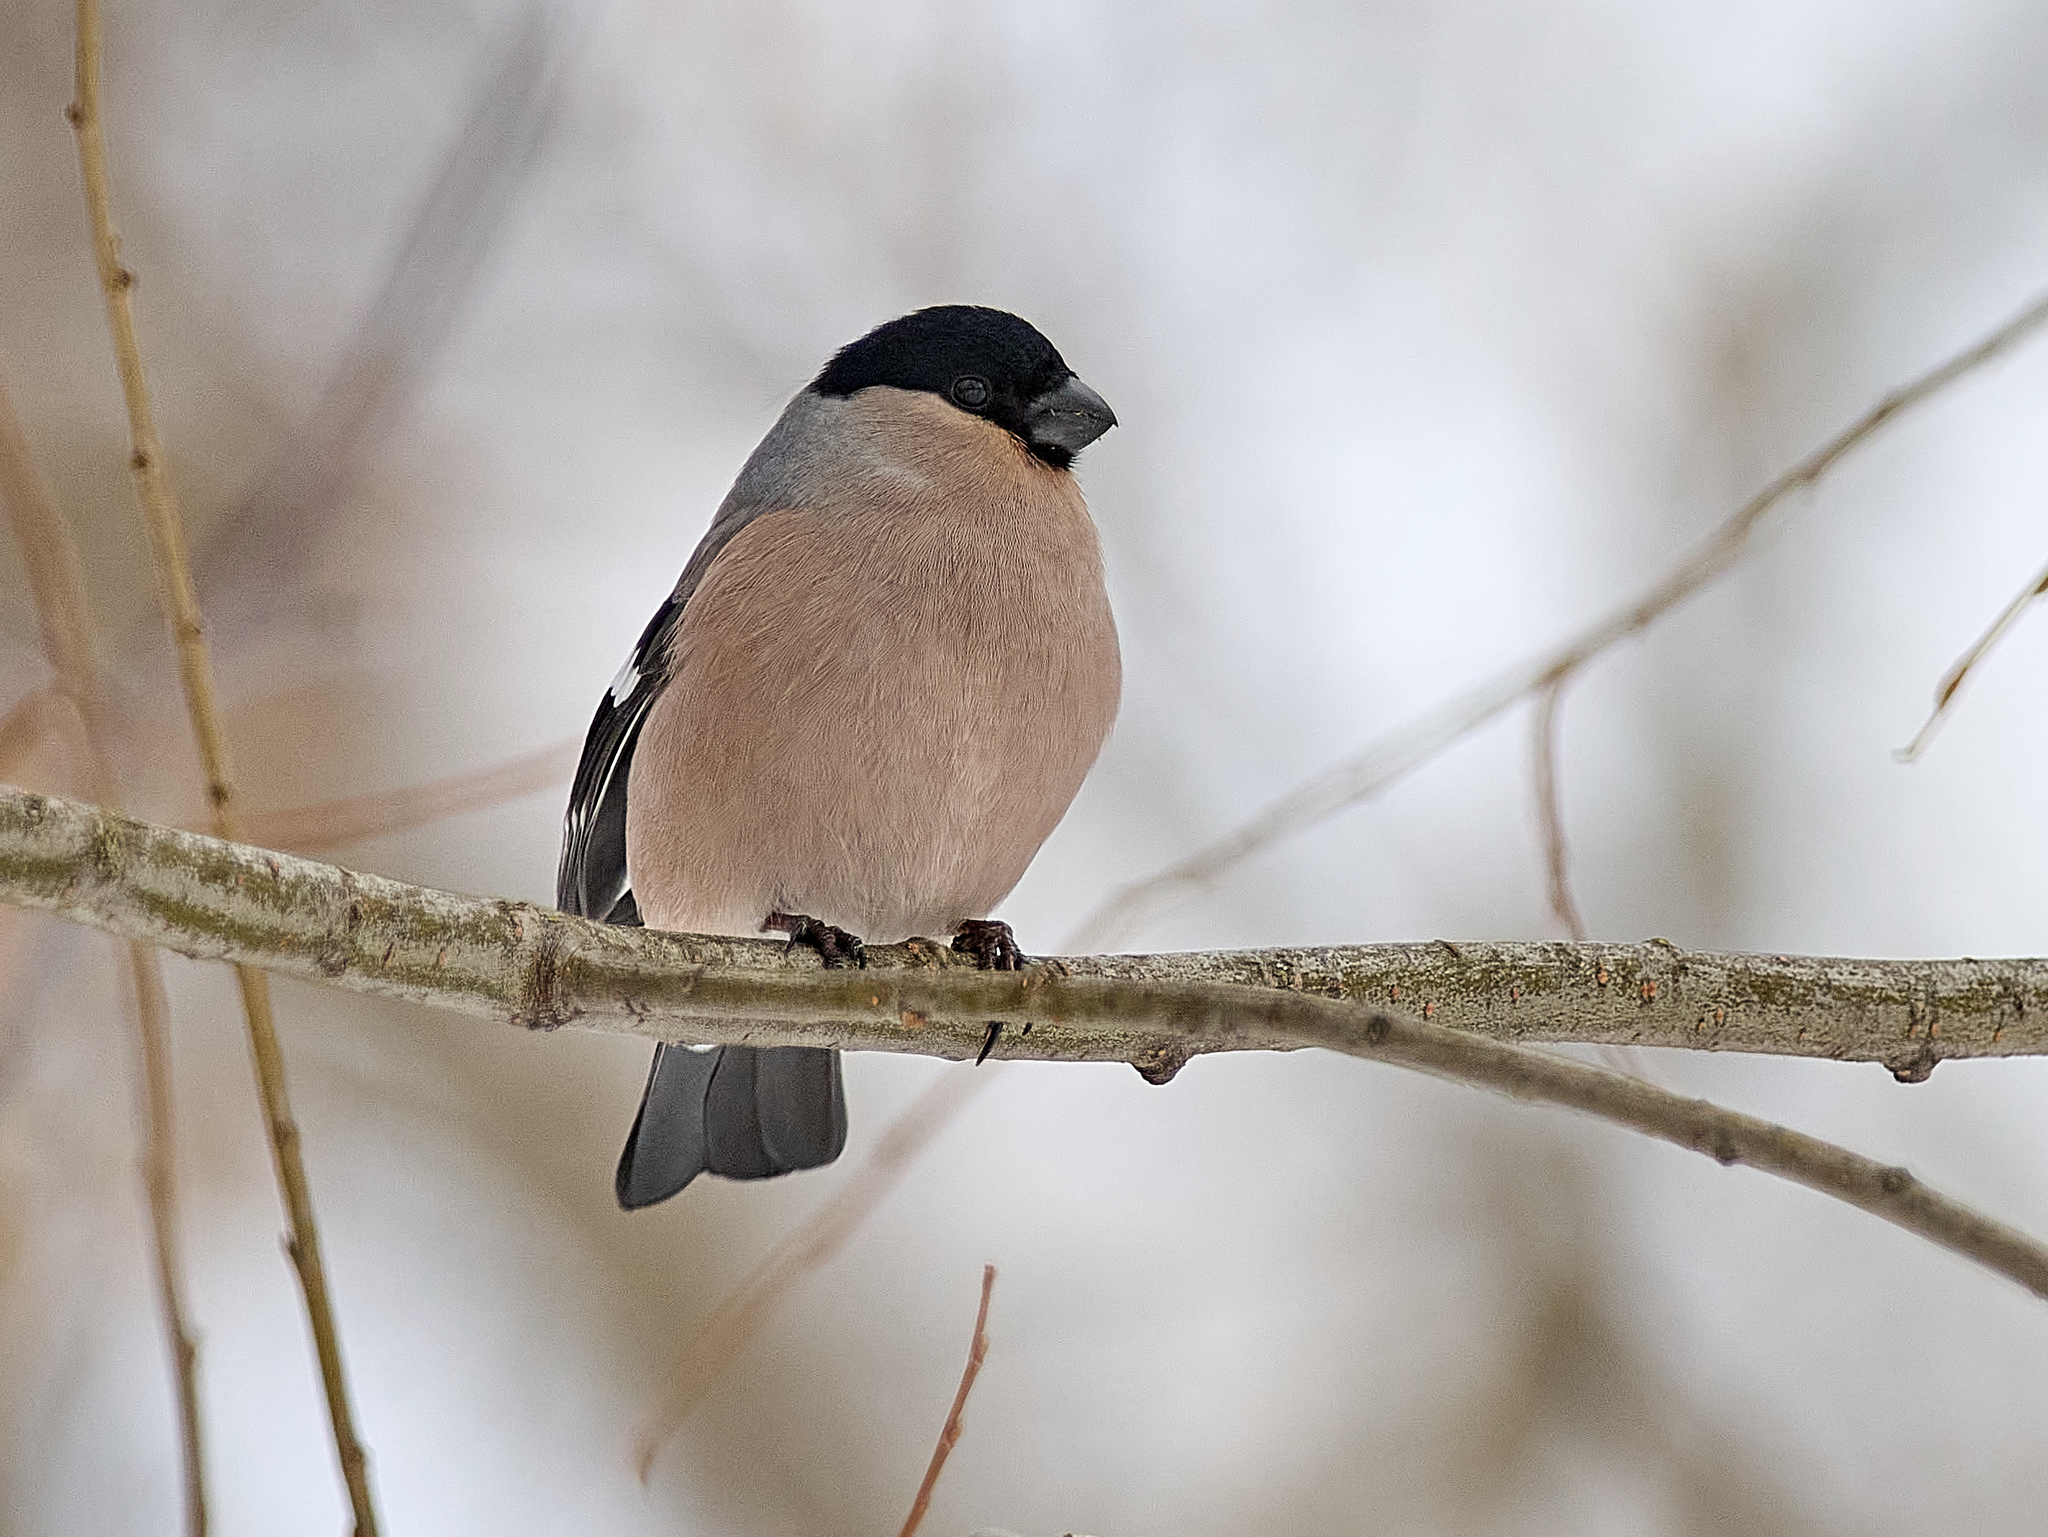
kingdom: Animalia
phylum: Chordata
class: Aves
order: Passeriformes
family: Fringillidae
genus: Pyrrhula
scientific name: Pyrrhula pyrrhula
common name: Eurasian bullfinch
